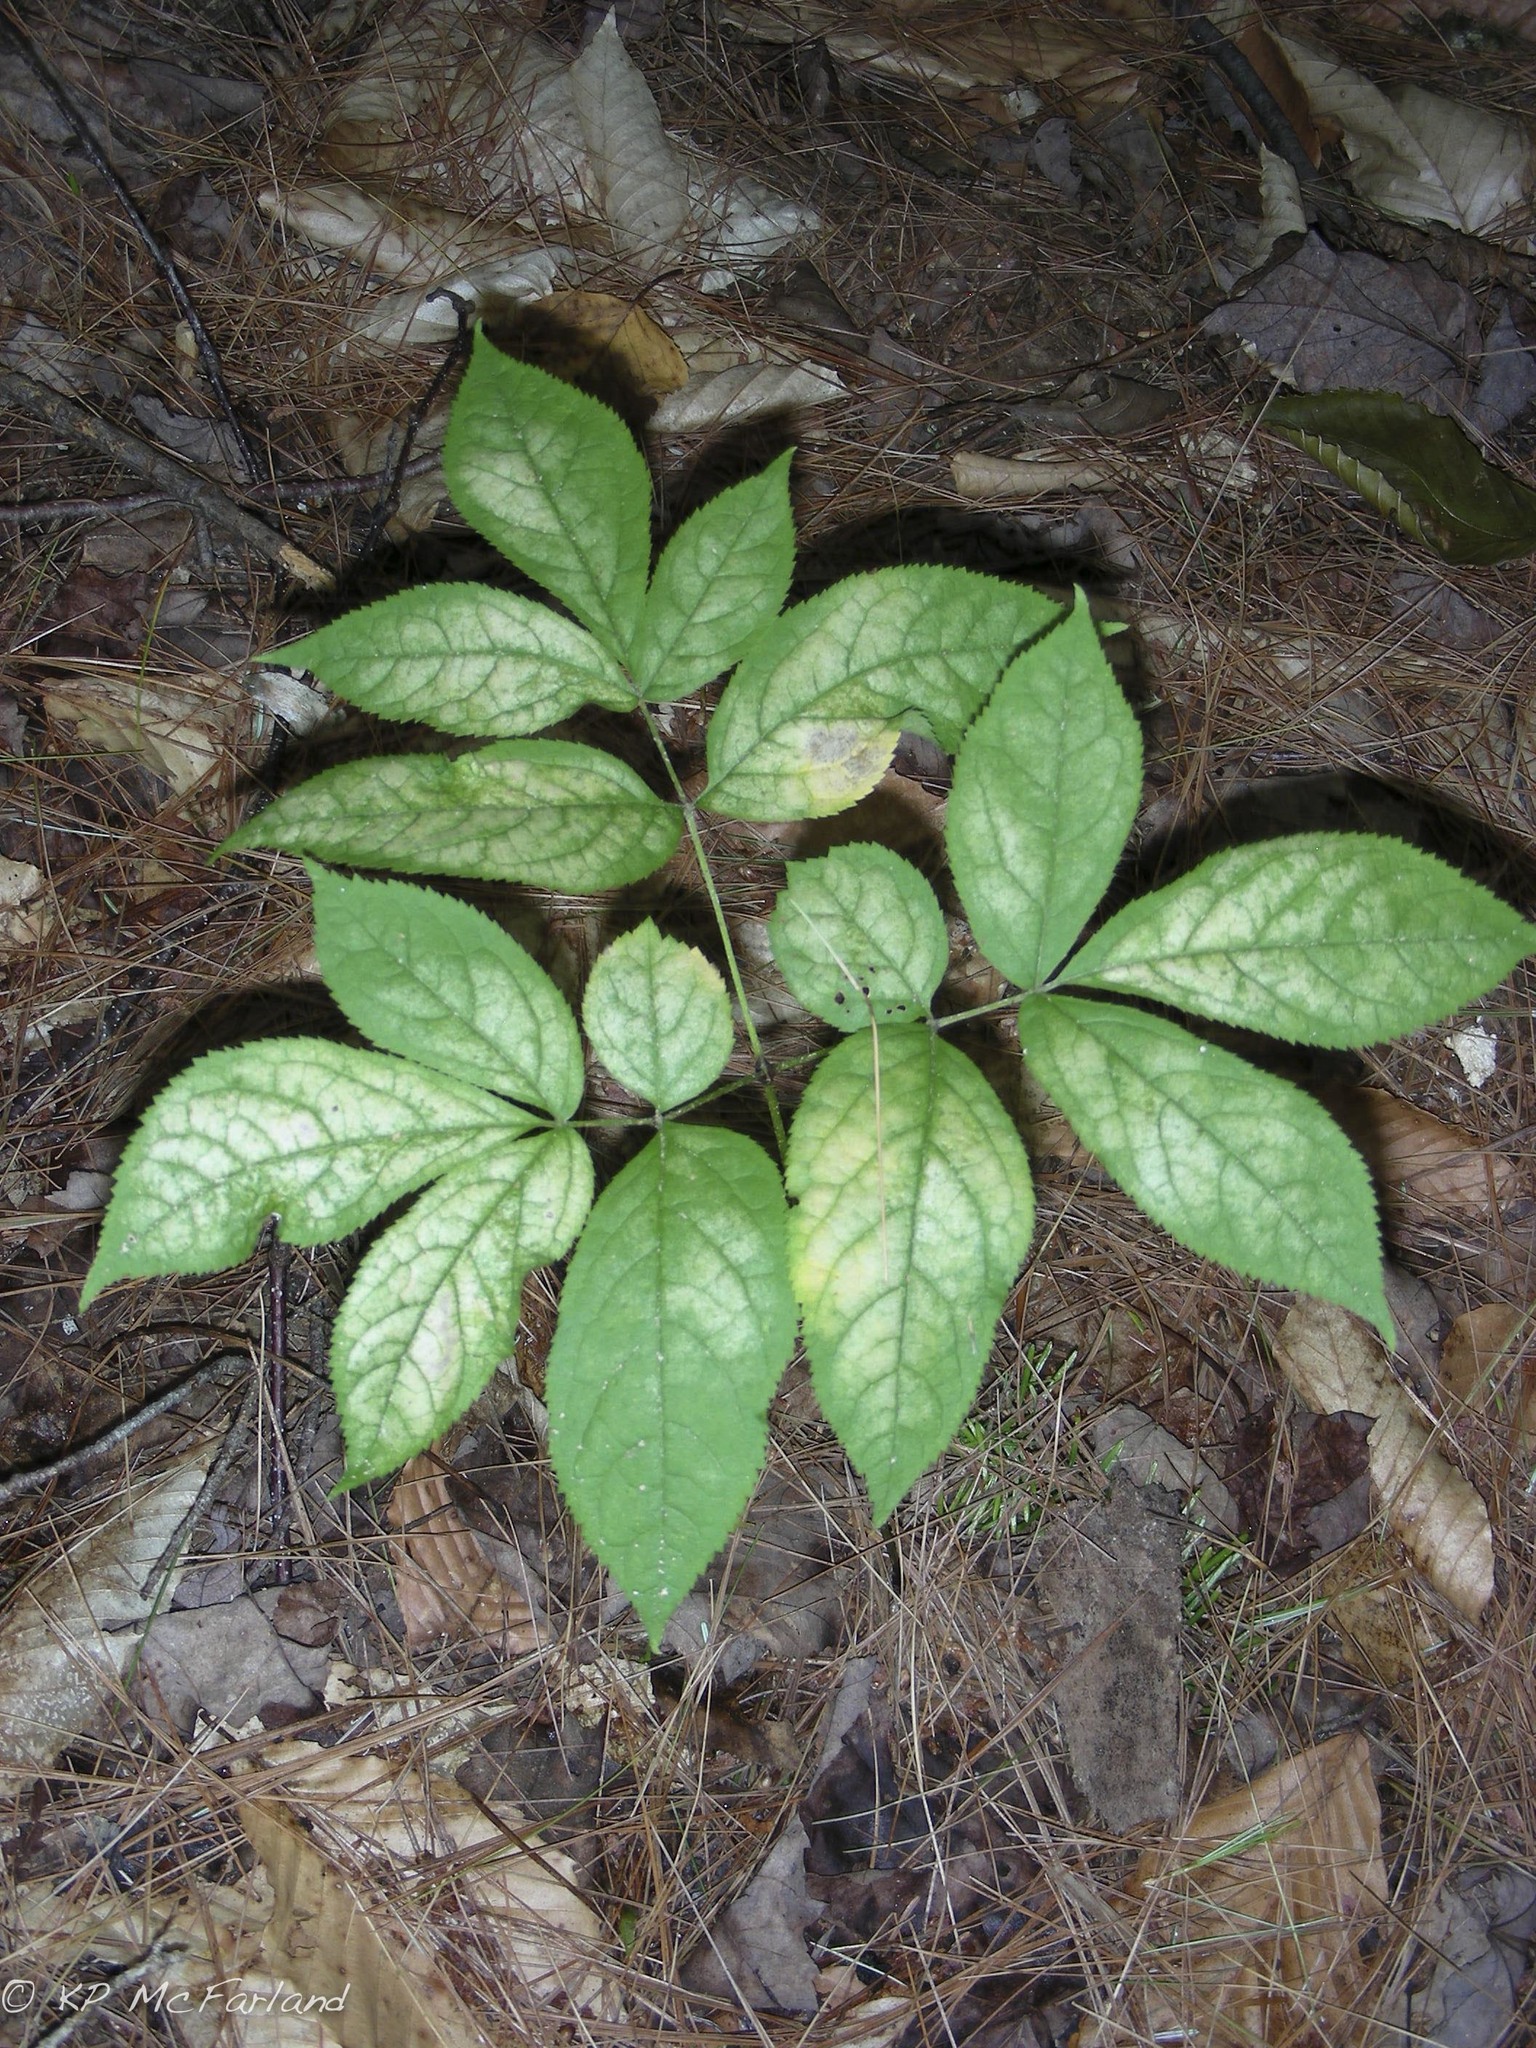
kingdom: Plantae
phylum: Tracheophyta
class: Magnoliopsida
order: Apiales
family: Araliaceae
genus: Aralia
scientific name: Aralia nudicaulis
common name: Wild sarsaparilla
